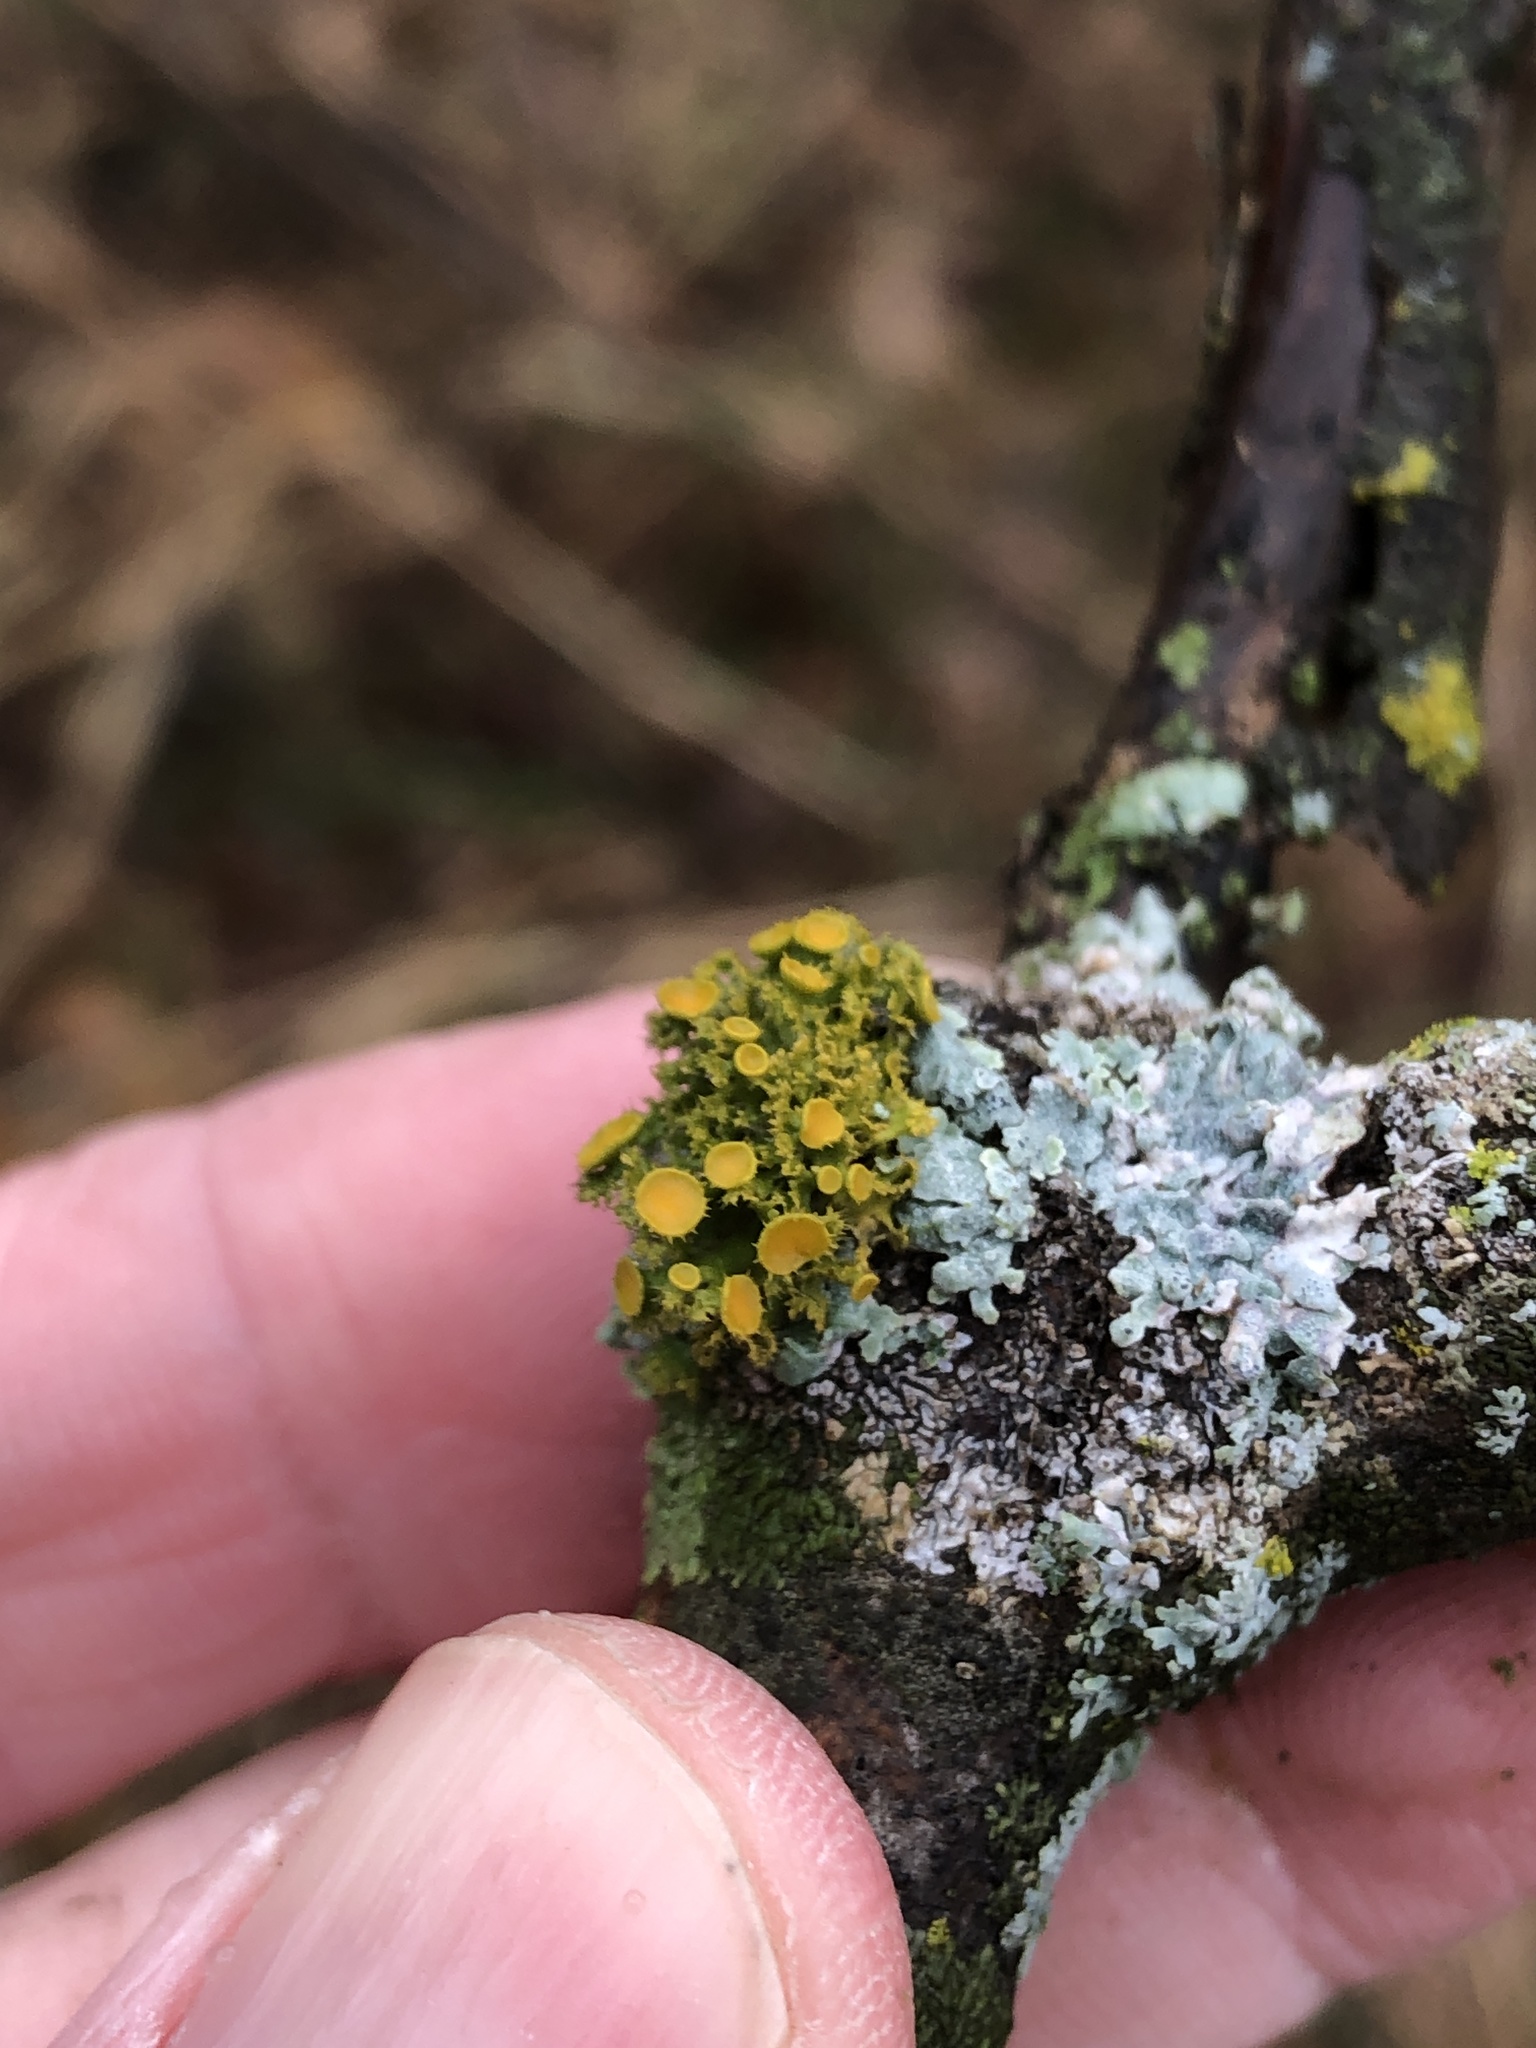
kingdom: Fungi
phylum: Ascomycota
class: Lecanoromycetes
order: Teloschistales
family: Teloschistaceae
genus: Niorma
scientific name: Niorma chrysophthalma
